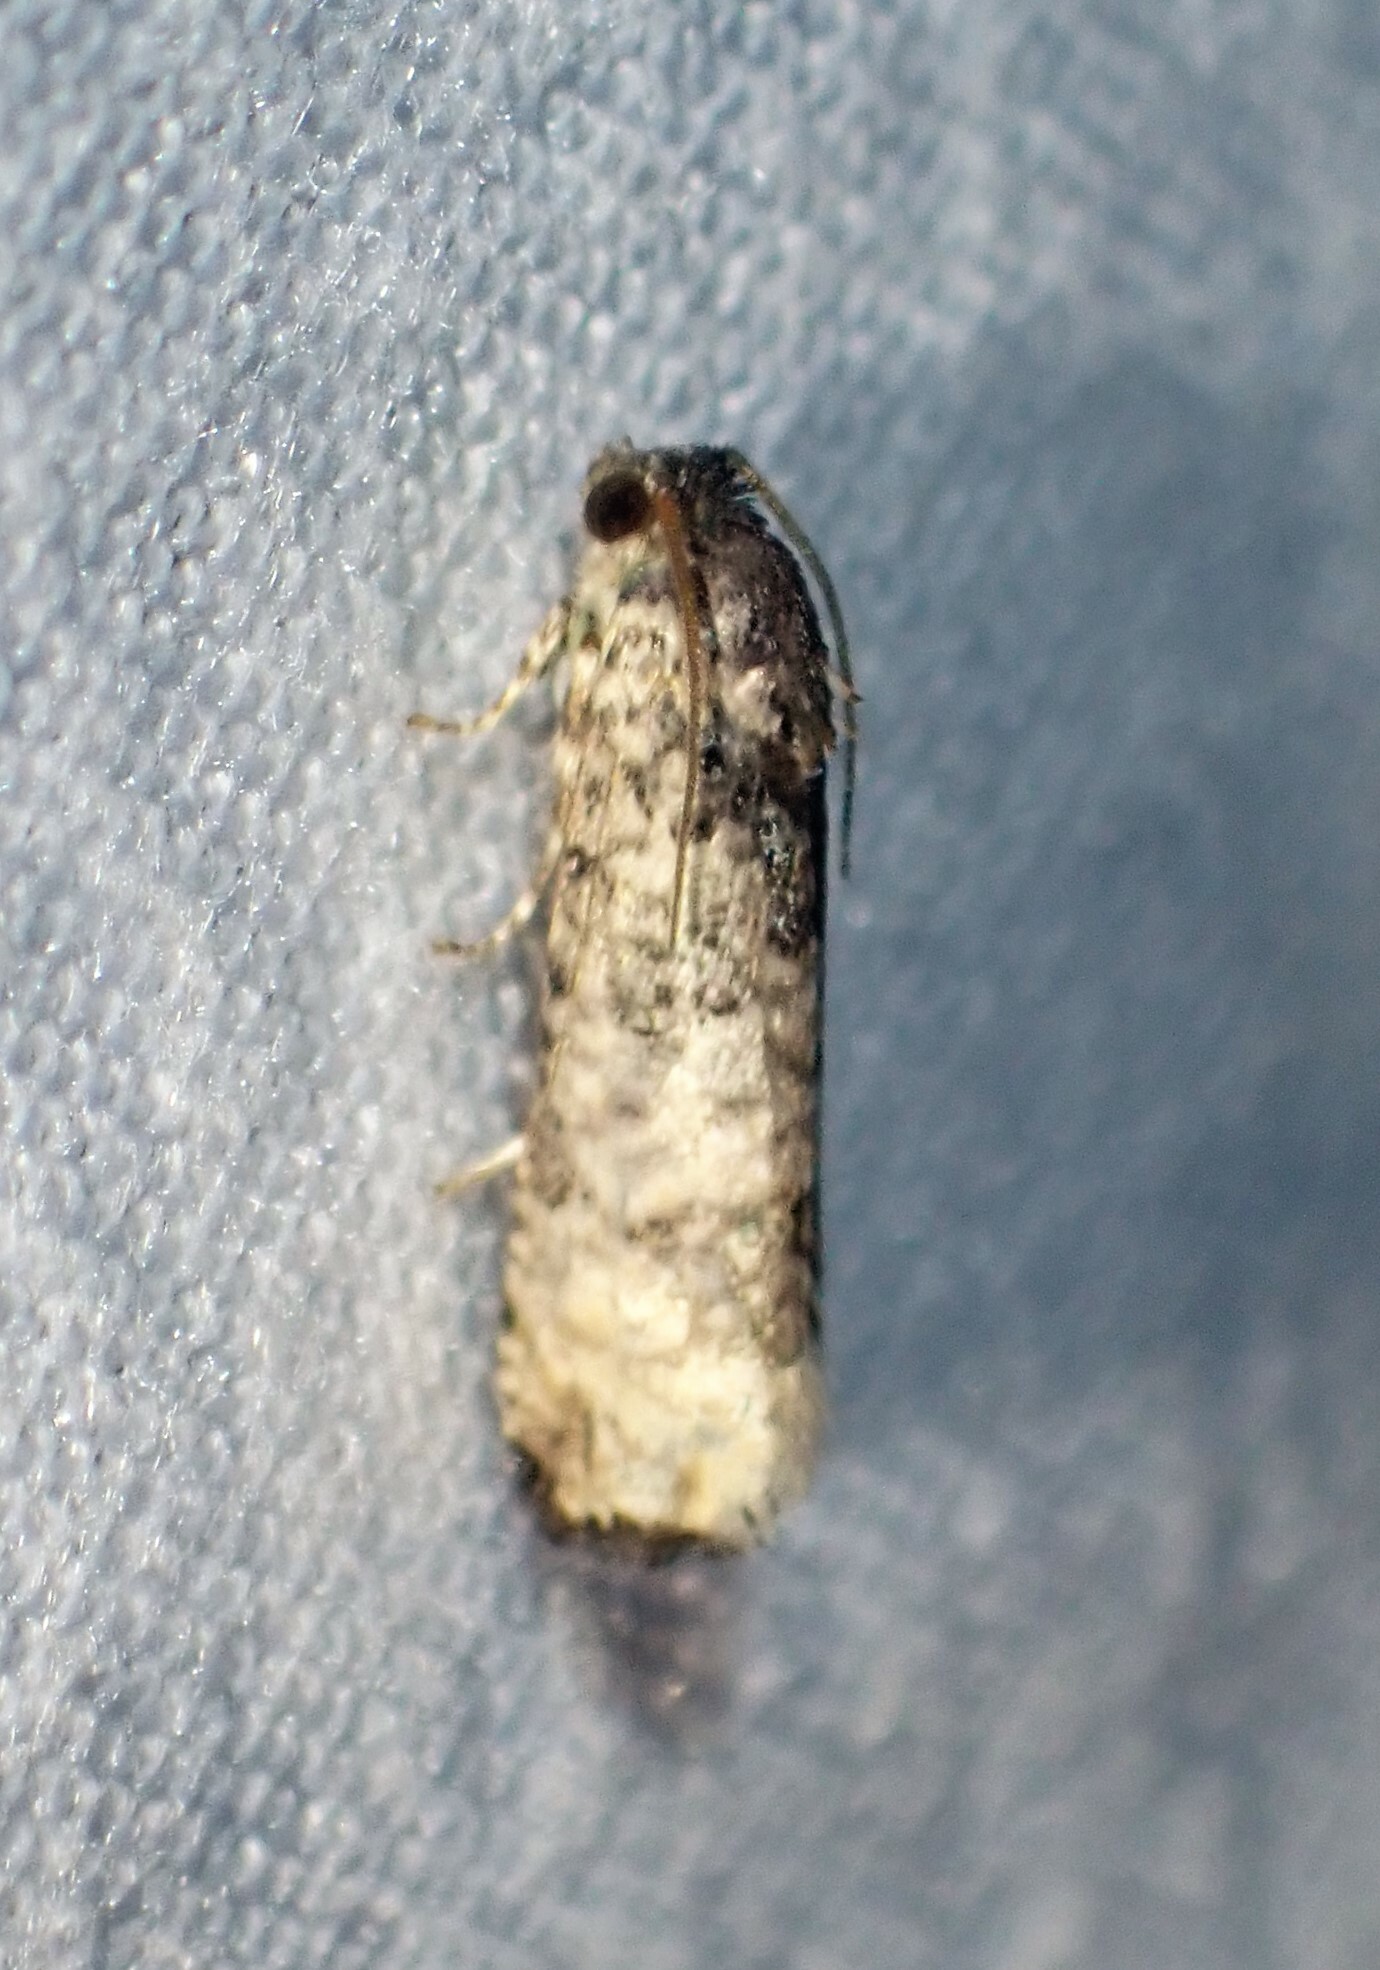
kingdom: Animalia
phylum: Arthropoda
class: Insecta
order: Lepidoptera
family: Tortricidae
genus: Epiblema
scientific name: Epiblema obfuscana
